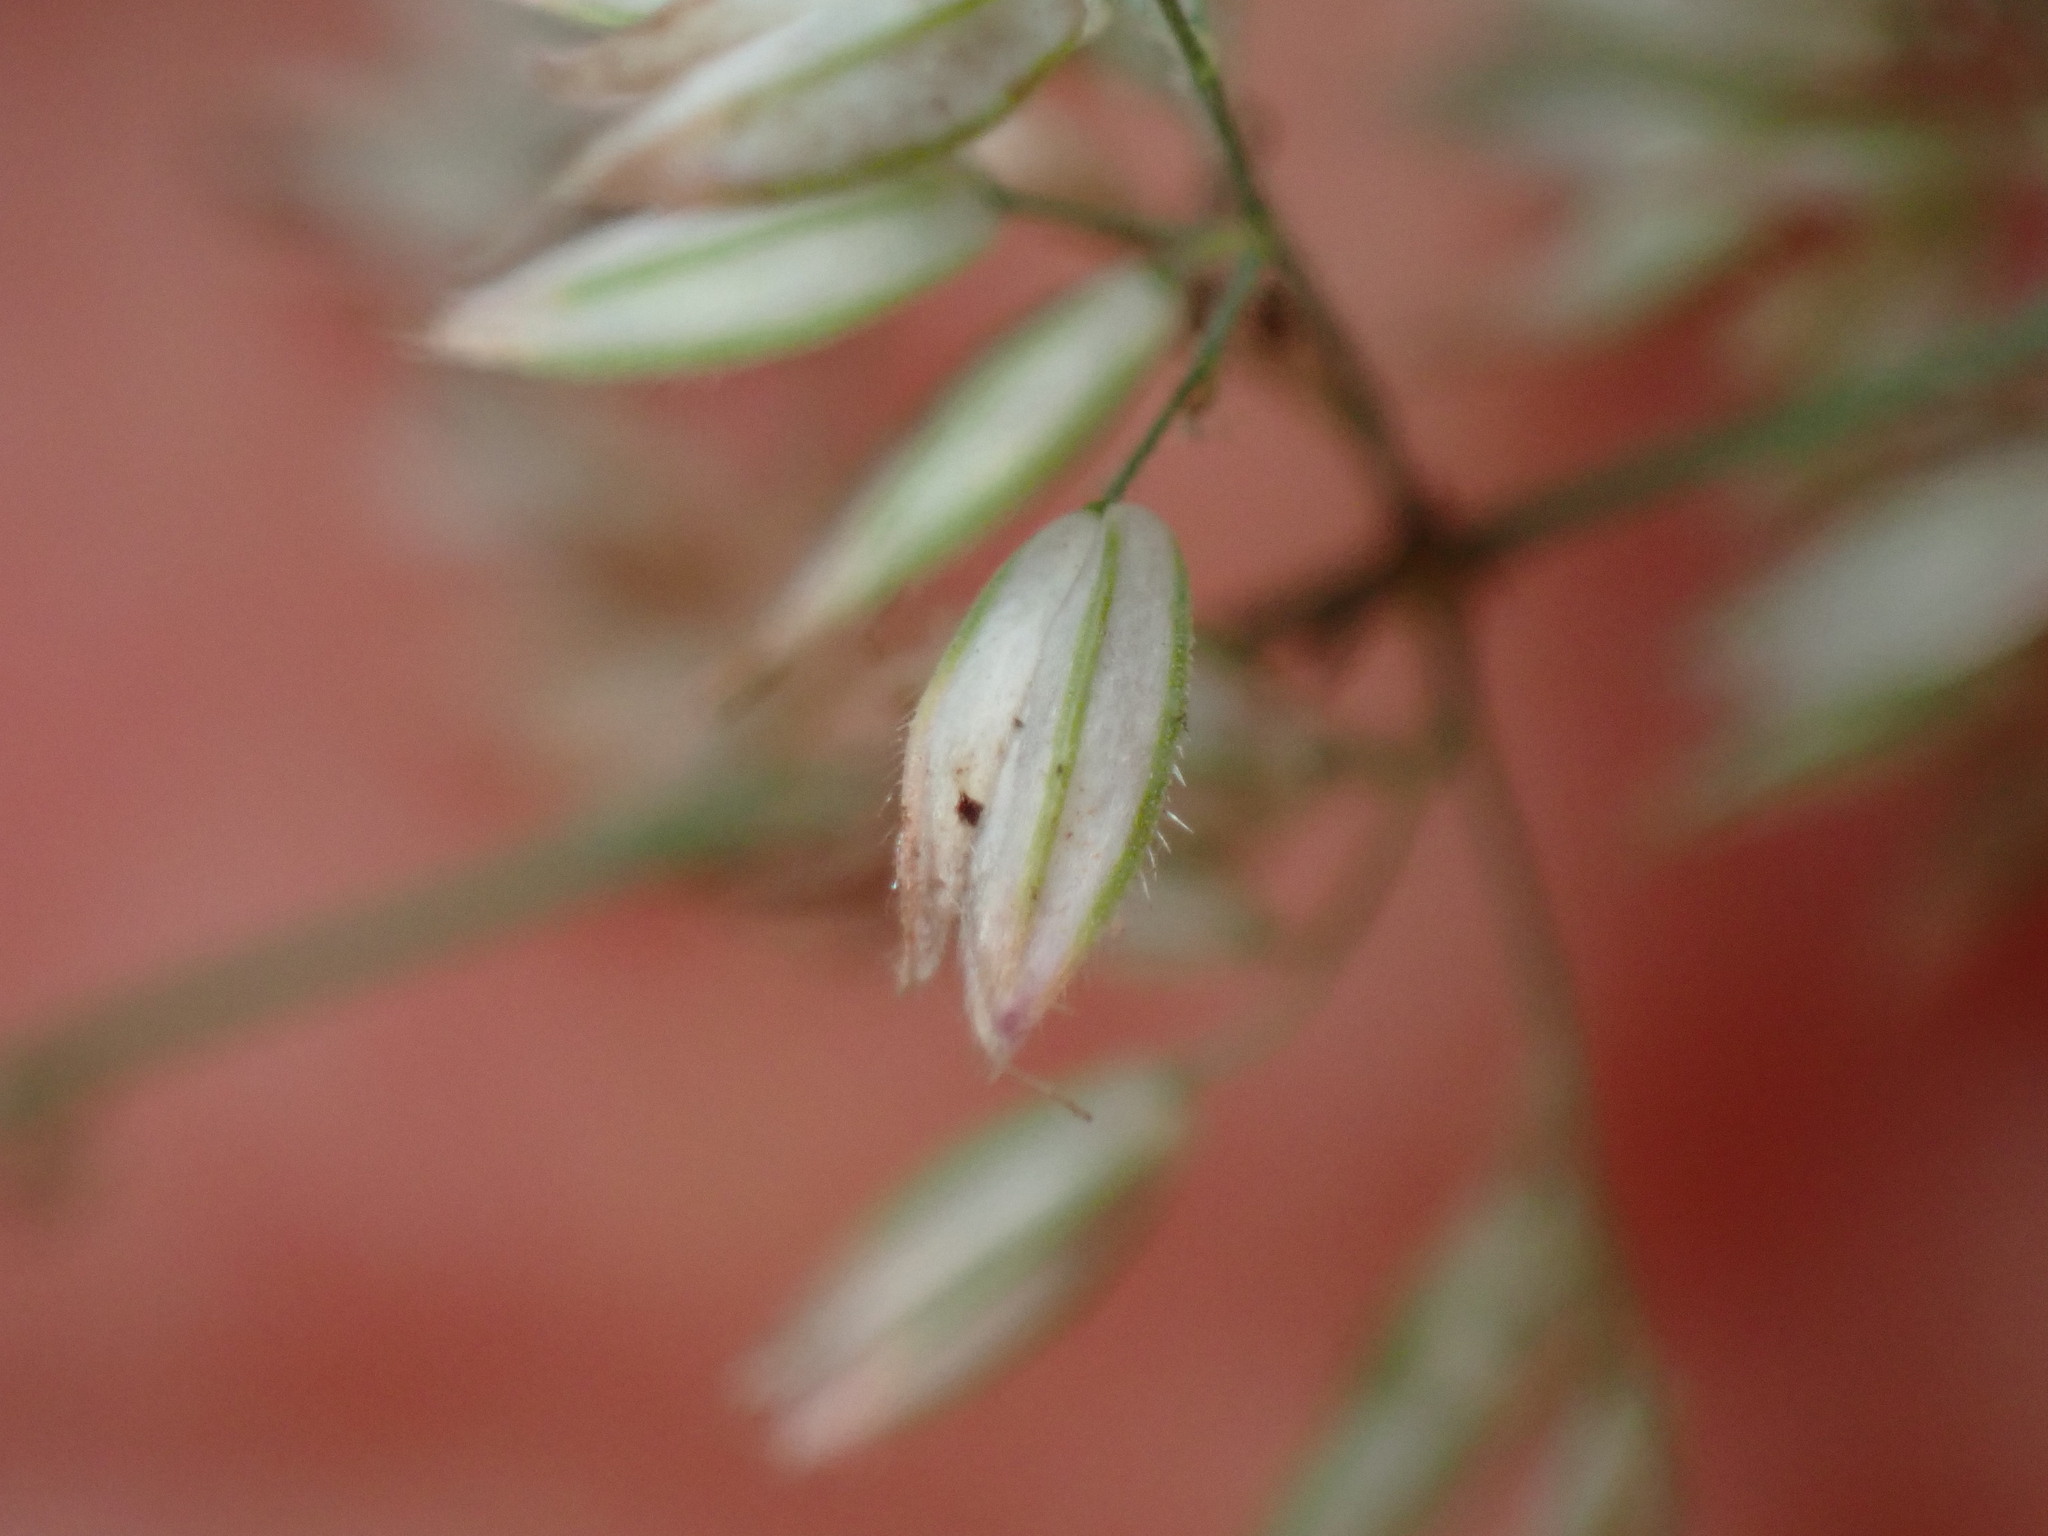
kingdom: Plantae
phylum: Tracheophyta
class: Liliopsida
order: Poales
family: Poaceae
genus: Holcus
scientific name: Holcus lanatus
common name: Yorkshire-fog
